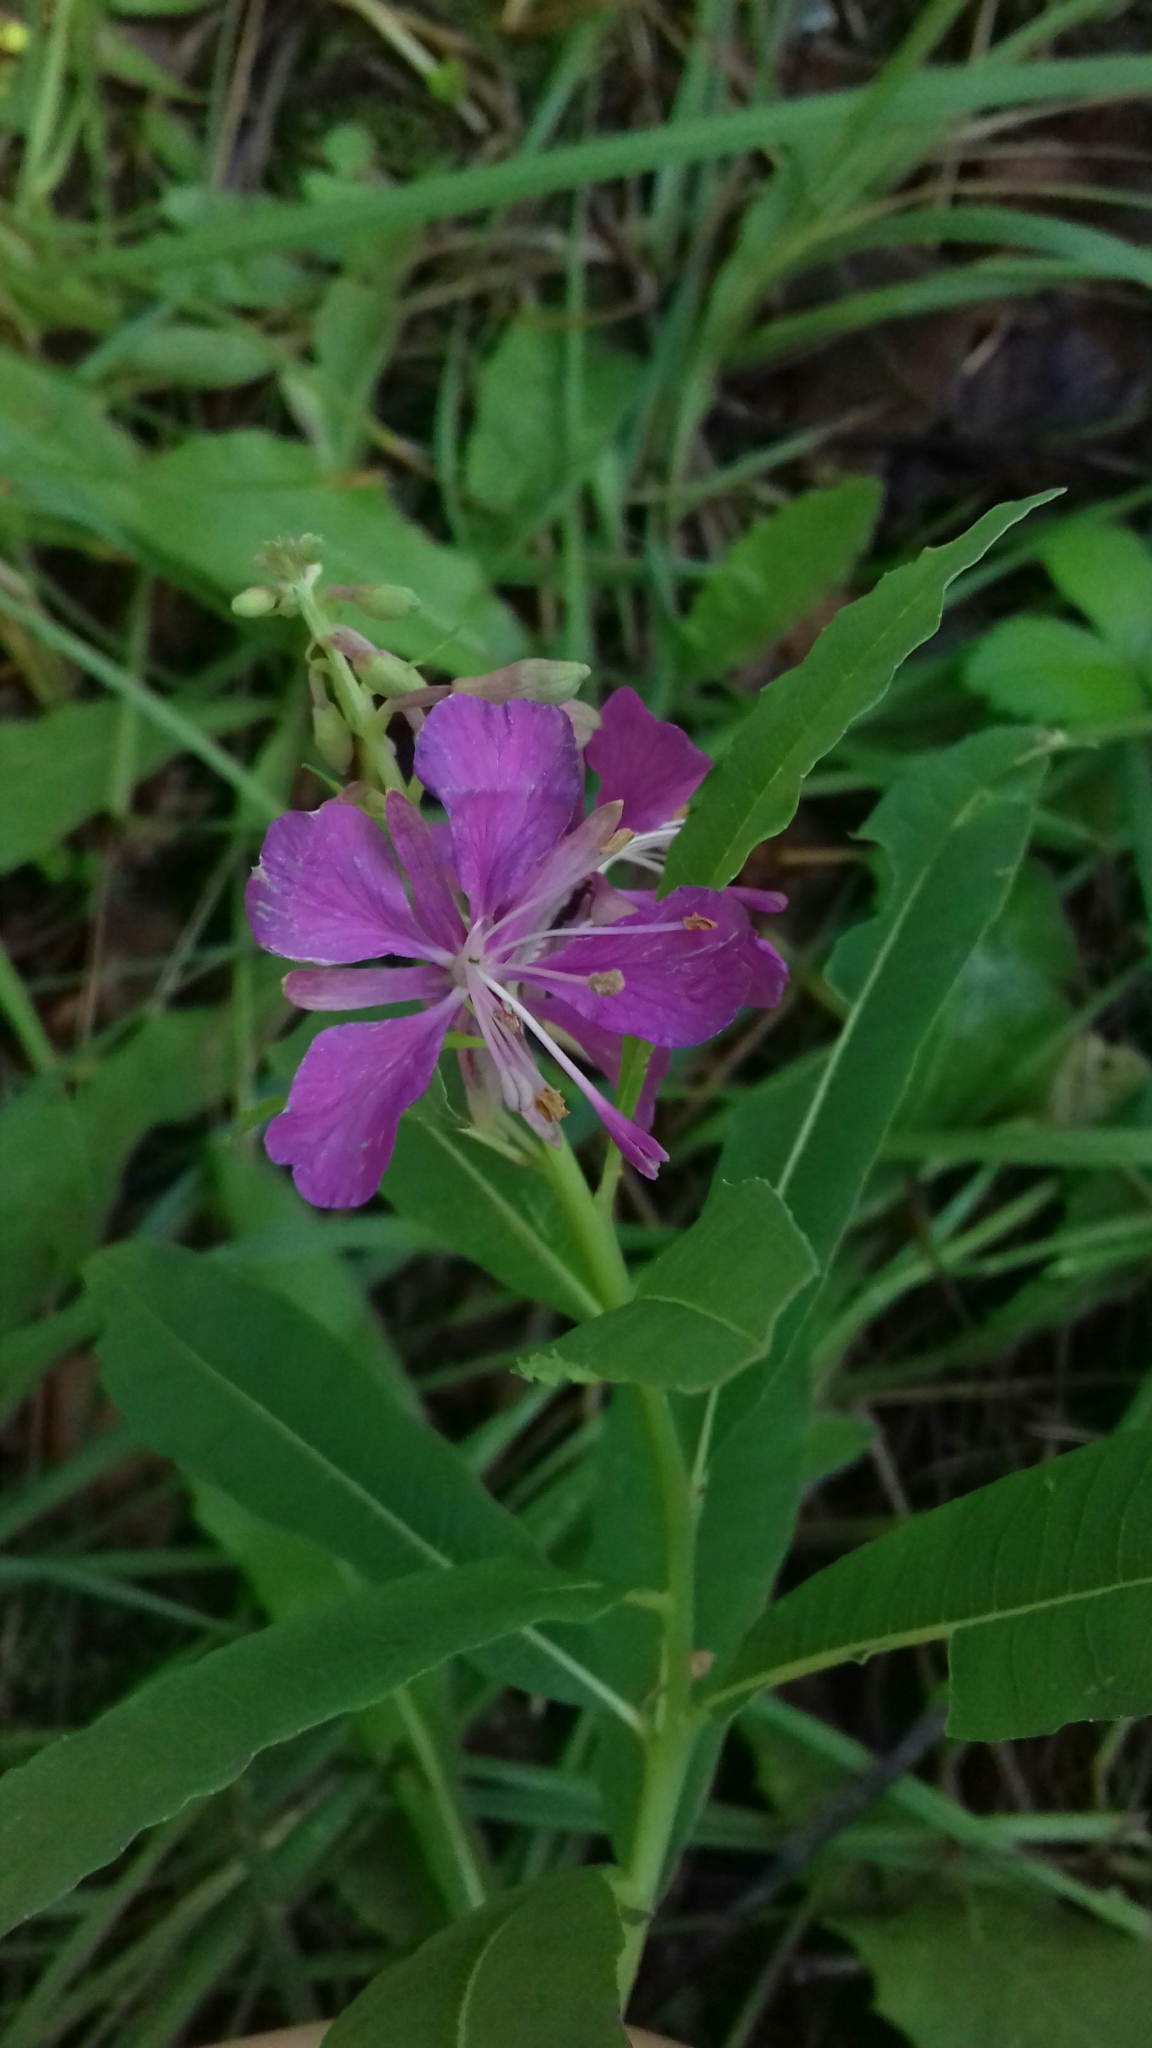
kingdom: Plantae
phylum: Tracheophyta
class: Magnoliopsida
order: Myrtales
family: Onagraceae
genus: Chamaenerion
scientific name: Chamaenerion angustifolium
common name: Fireweed
